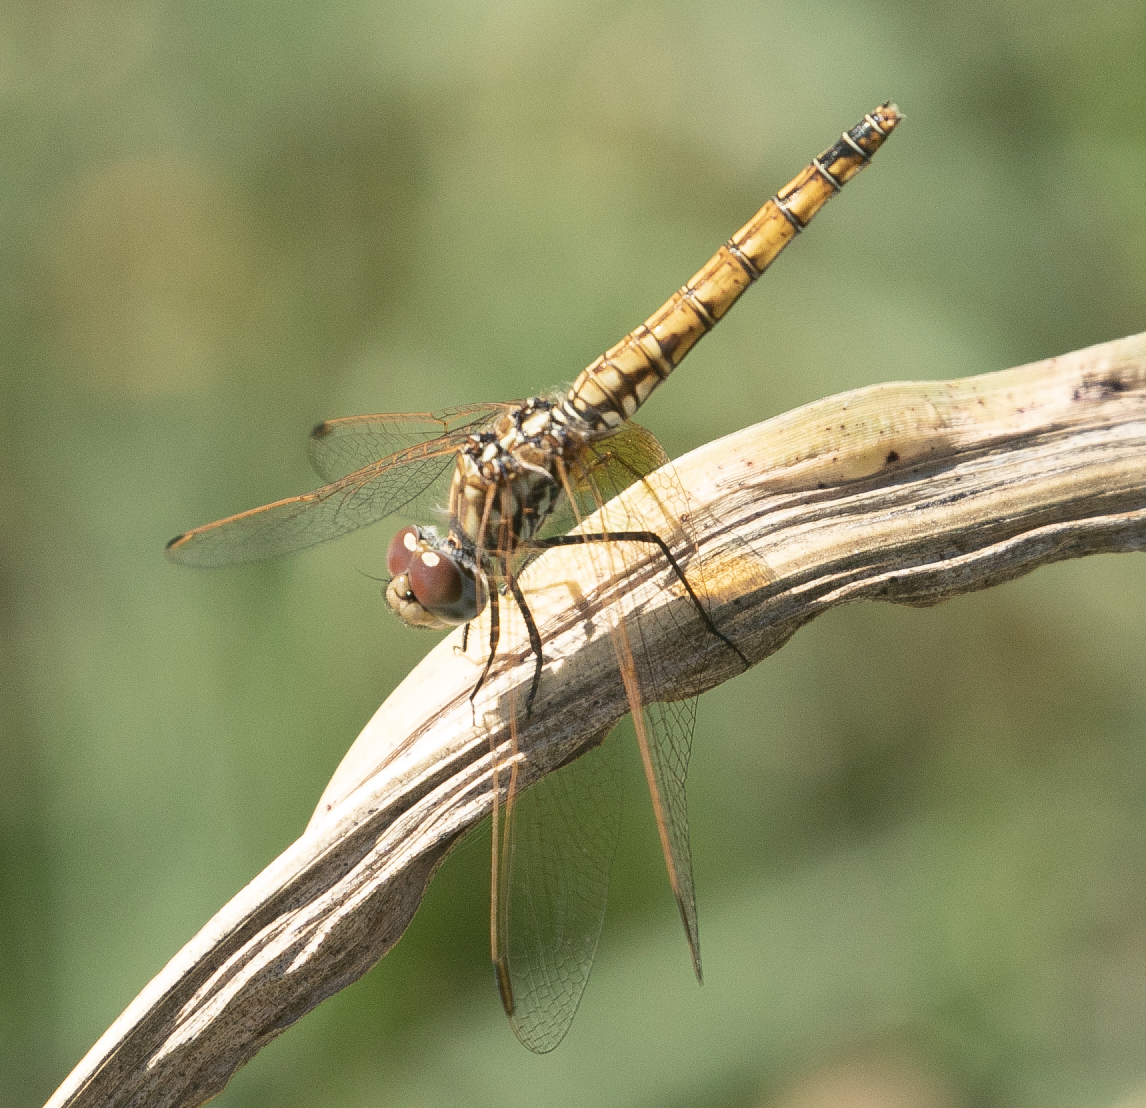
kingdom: Animalia
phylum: Arthropoda
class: Insecta
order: Odonata
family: Libellulidae
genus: Trithemis
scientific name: Trithemis annulata
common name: Violet dropwing
